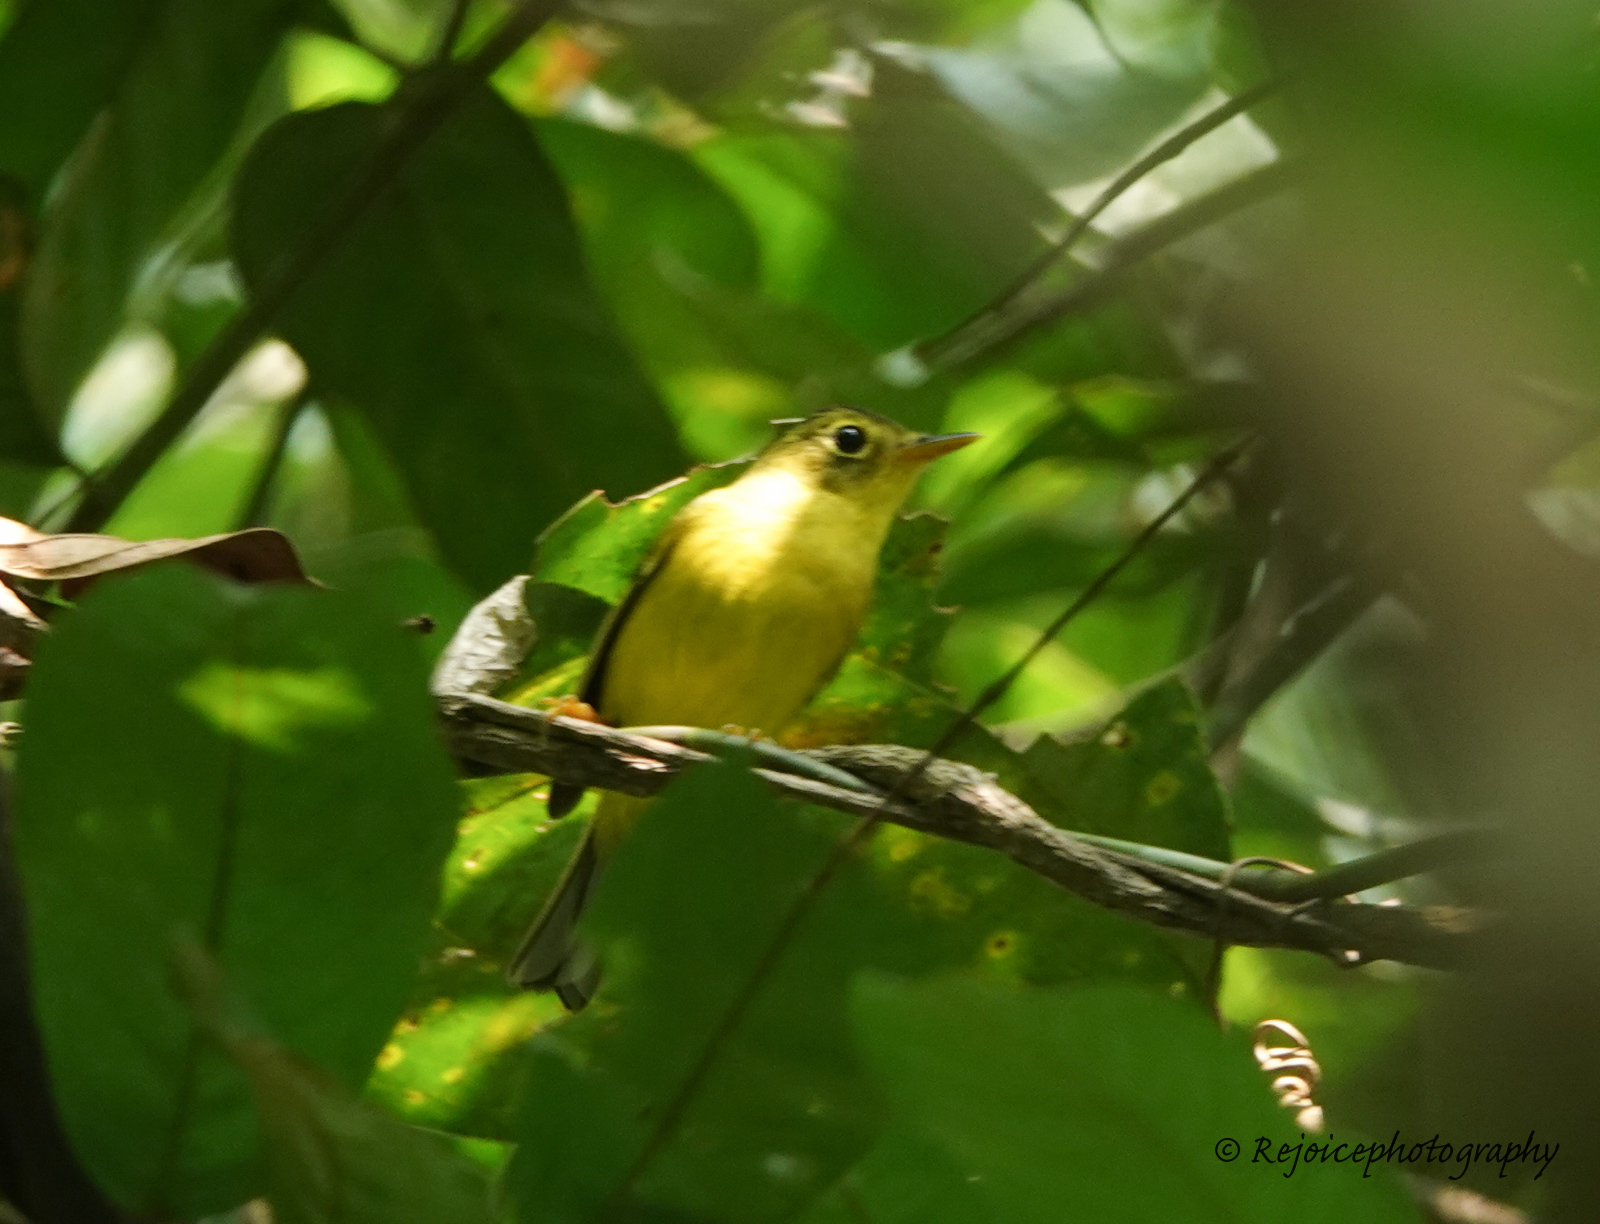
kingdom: Animalia
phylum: Chordata
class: Aves
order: Passeriformes
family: Phylloscopidae
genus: Seicercus
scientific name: Seicercus burkii
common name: Green-crowned warbler
